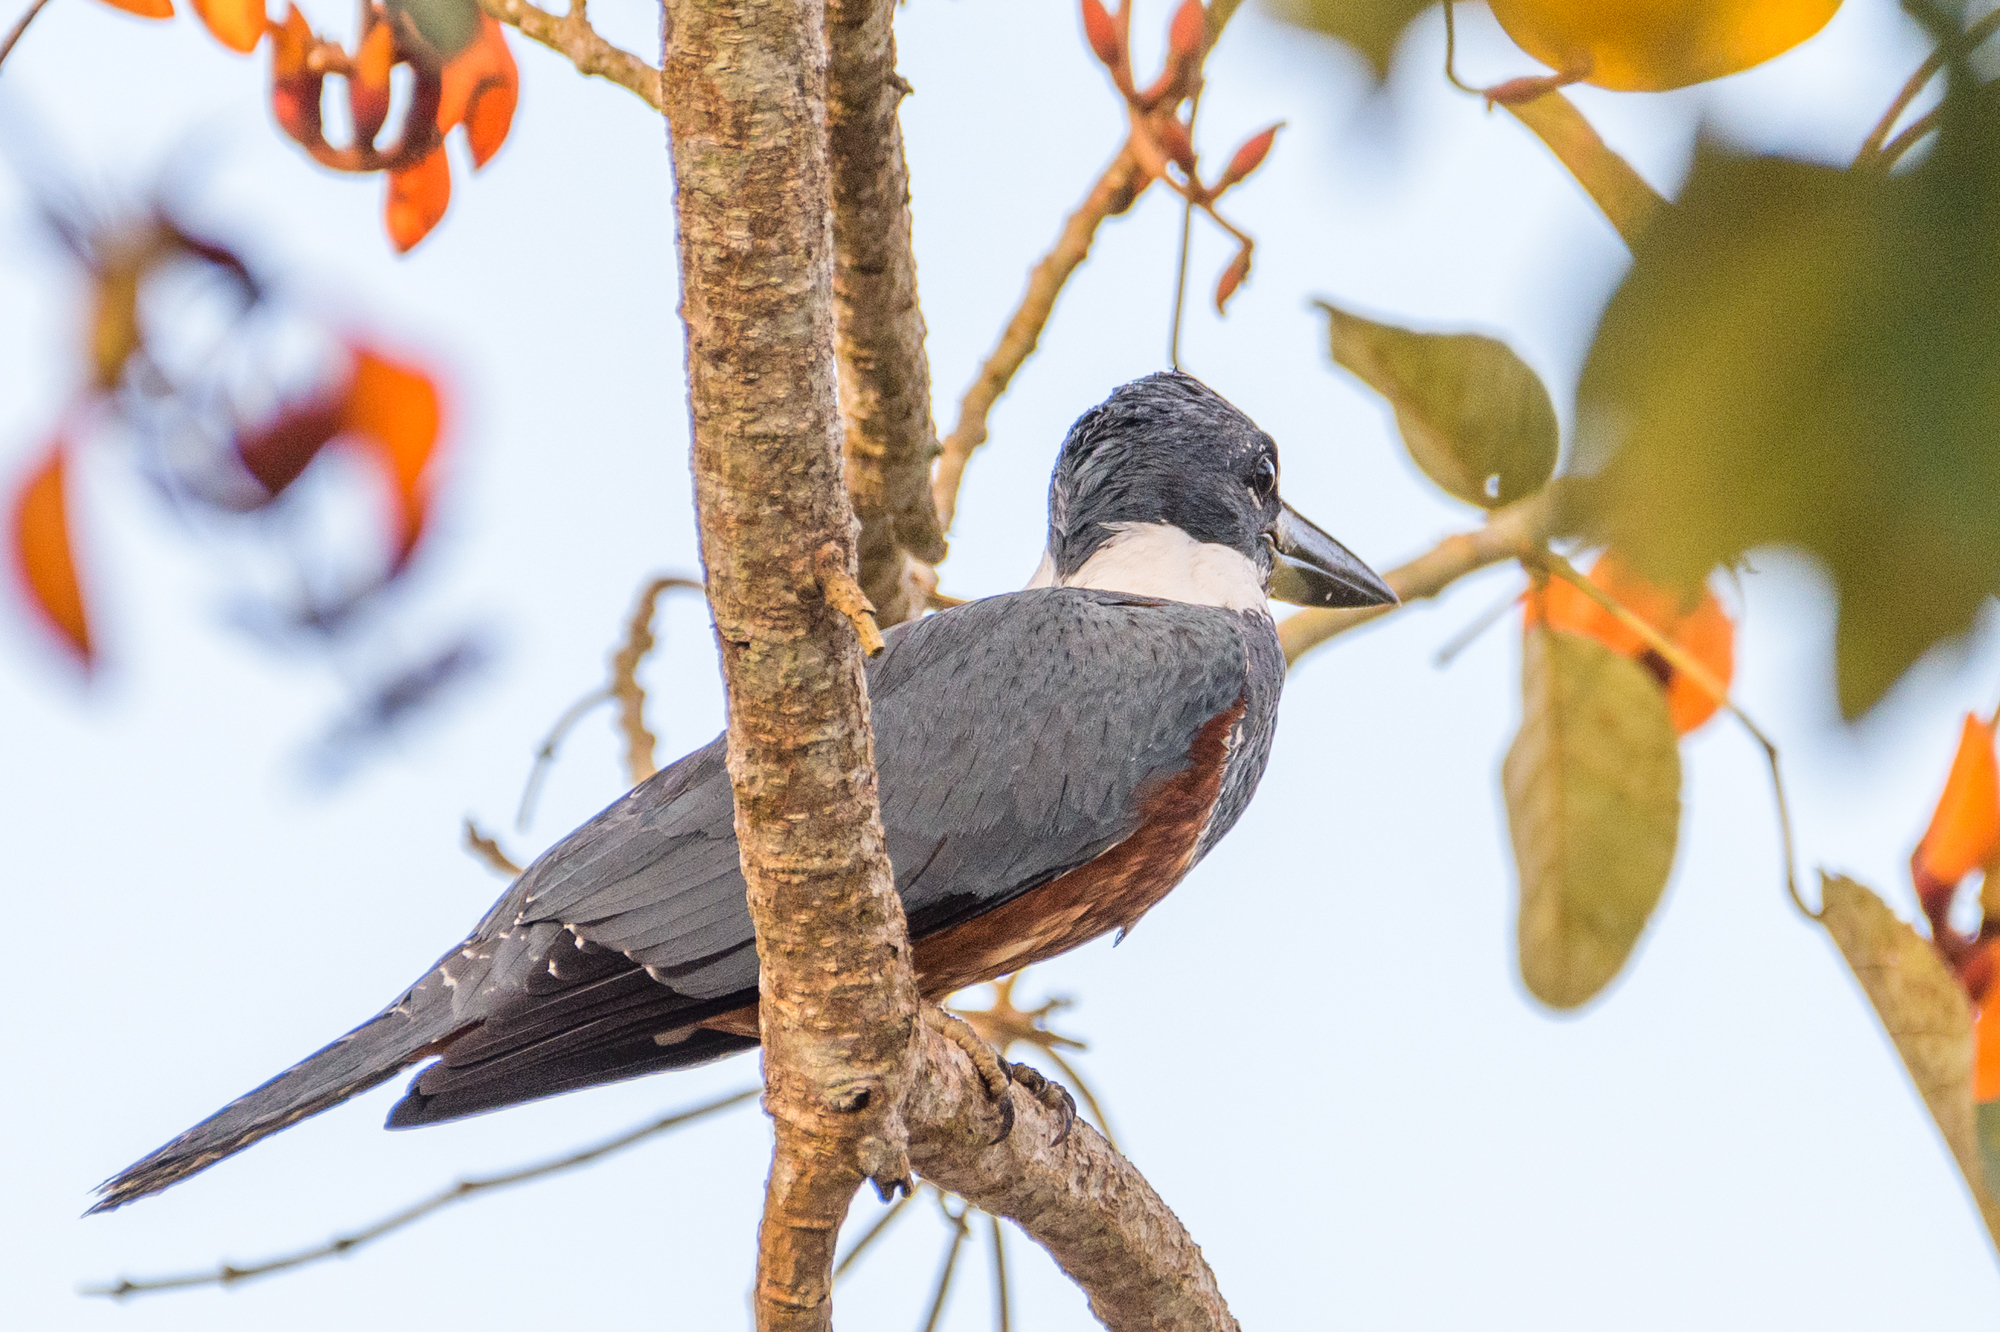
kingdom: Animalia
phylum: Chordata
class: Aves
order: Coraciiformes
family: Alcedinidae
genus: Megaceryle
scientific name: Megaceryle torquata
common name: Ringed kingfisher
